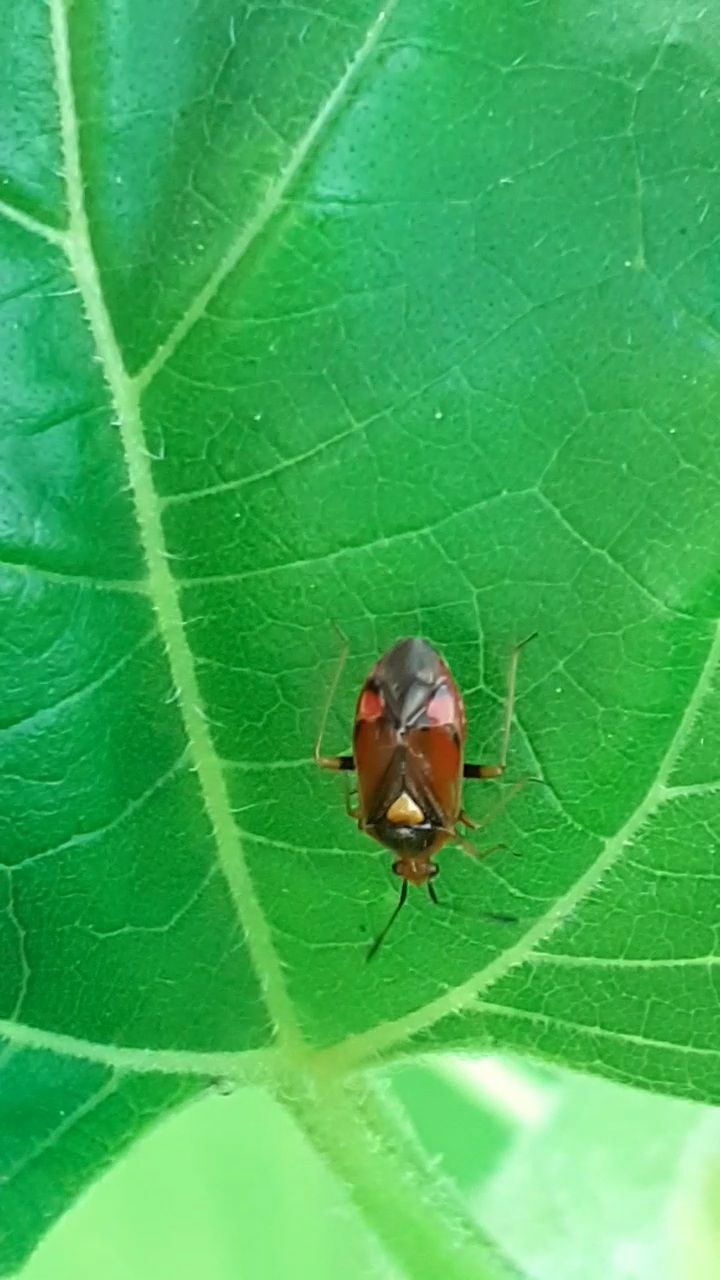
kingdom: Animalia
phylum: Arthropoda
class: Insecta
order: Hemiptera
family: Miridae
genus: Deraeocoris
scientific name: Deraeocoris ruber
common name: Plant bug
